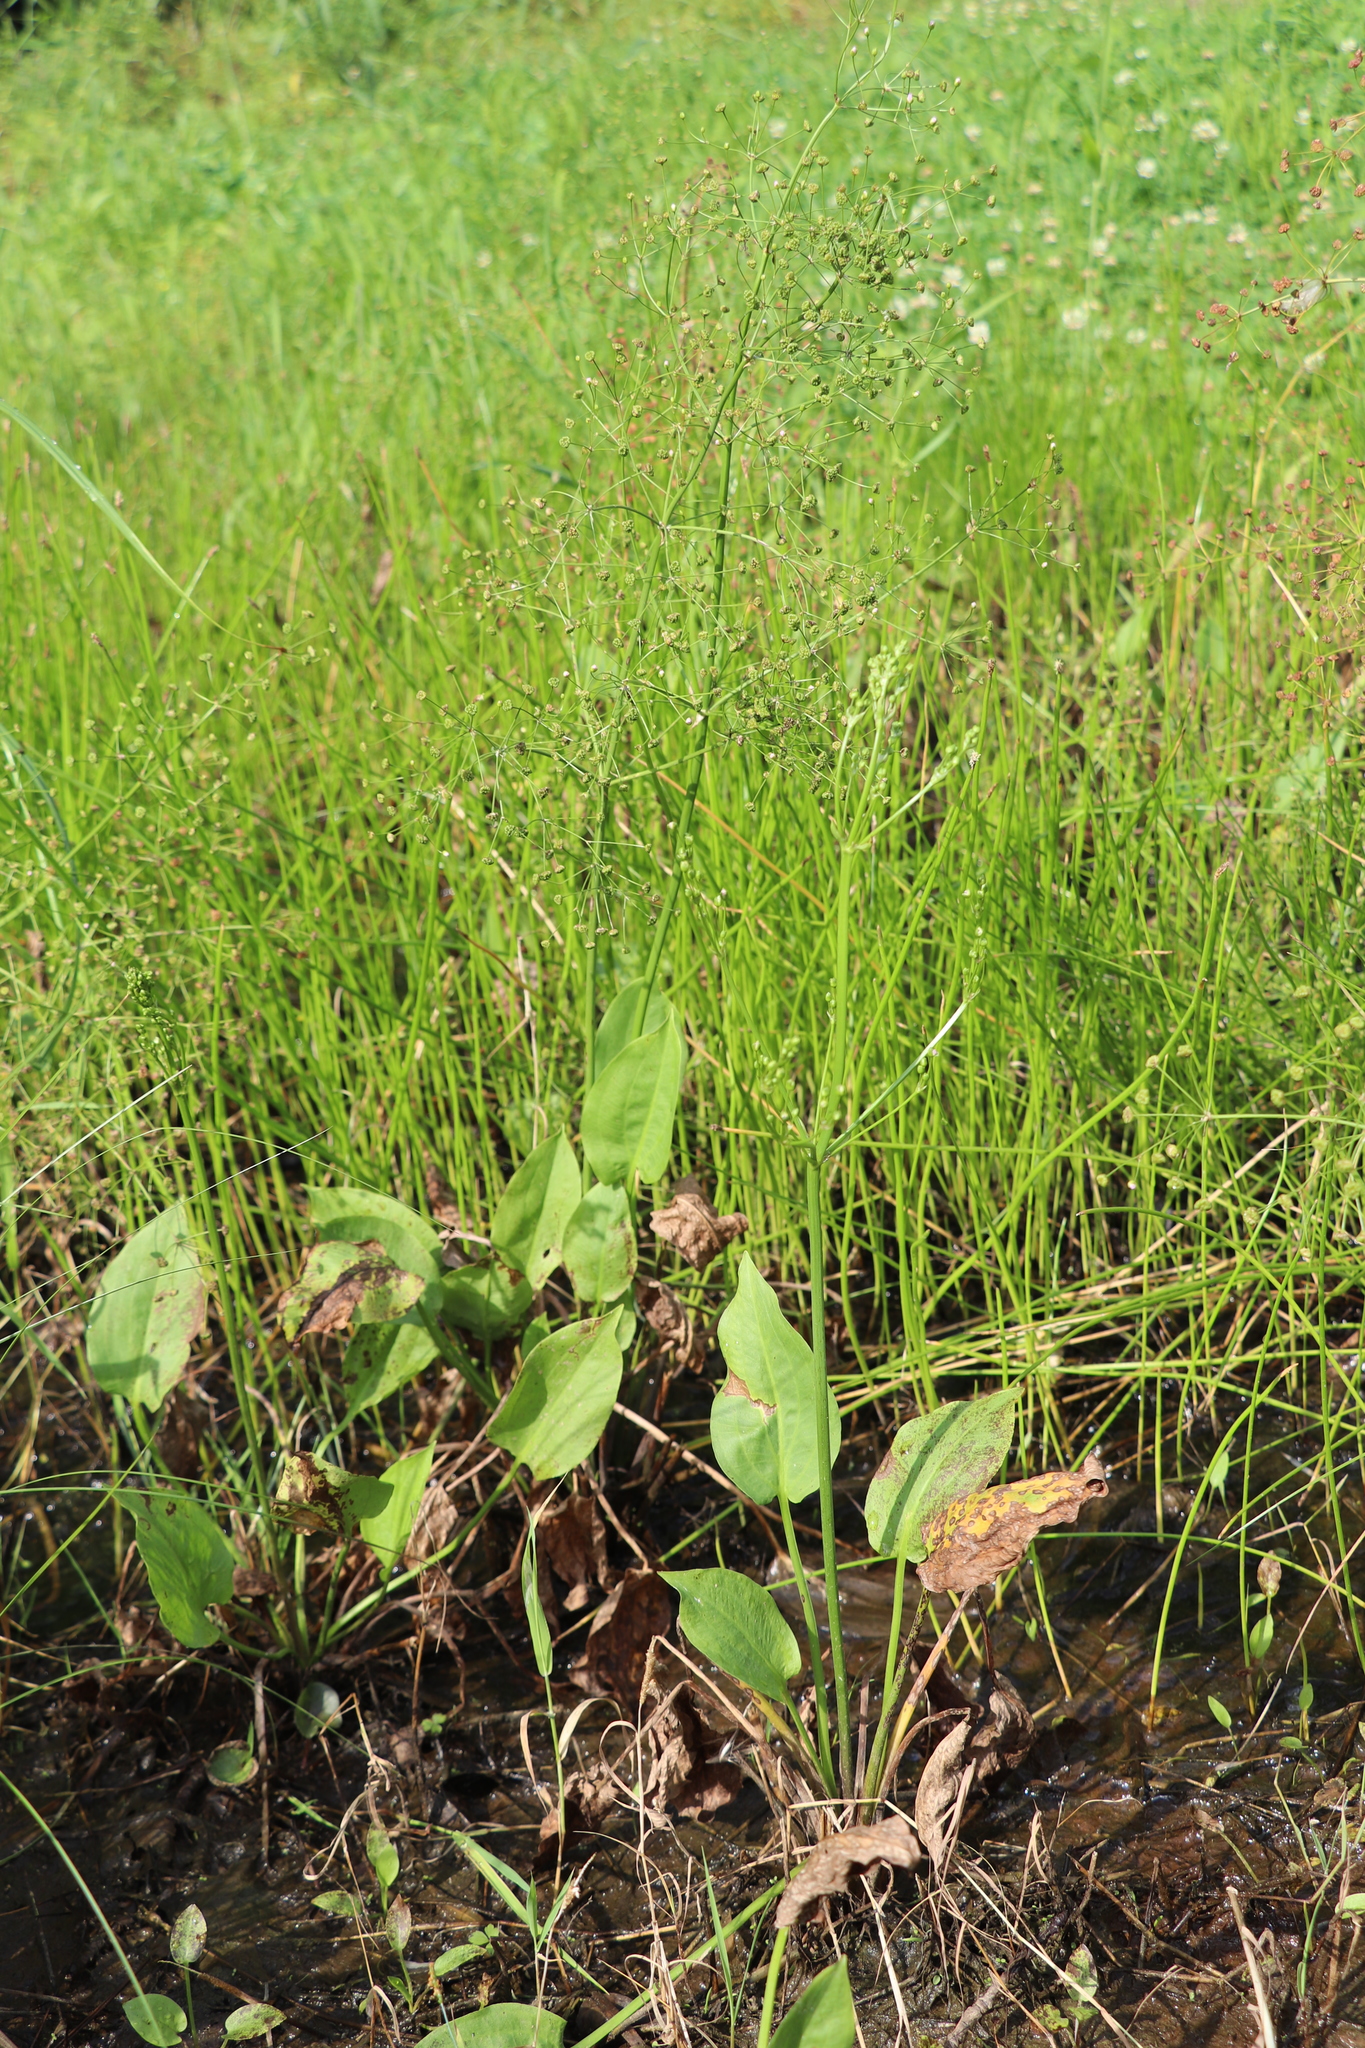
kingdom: Plantae
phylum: Tracheophyta
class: Liliopsida
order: Alismatales
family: Alismataceae
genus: Alisma
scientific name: Alisma plantago-aquatica
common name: Water-plantain
